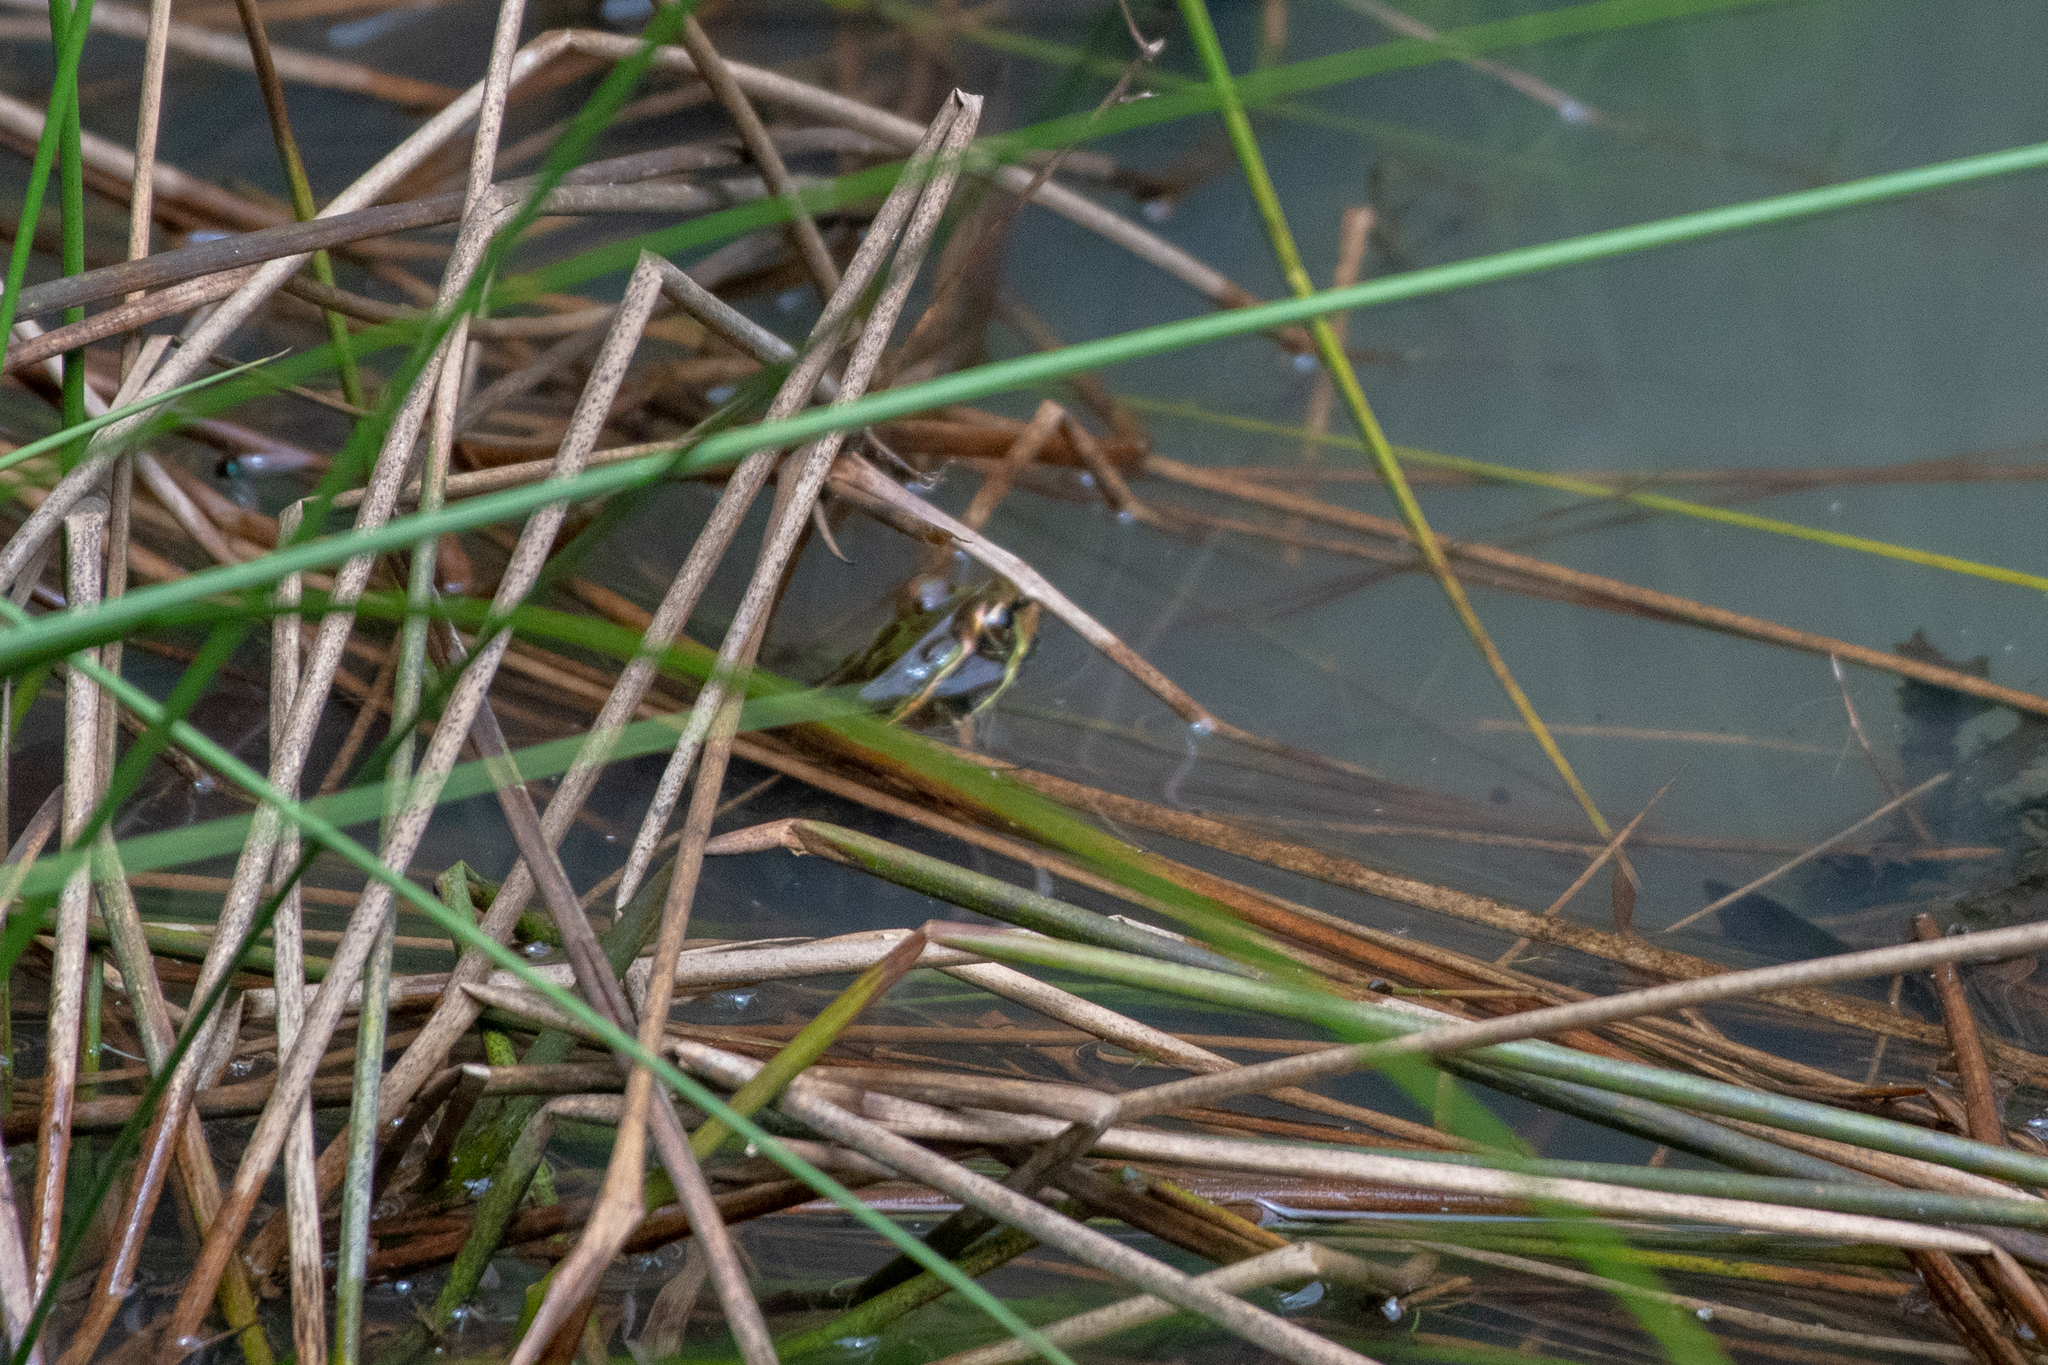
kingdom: Animalia
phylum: Chordata
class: Amphibia
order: Anura
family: Ranidae
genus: Lithobates
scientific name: Lithobates lenca
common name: Lenca leopard frog
